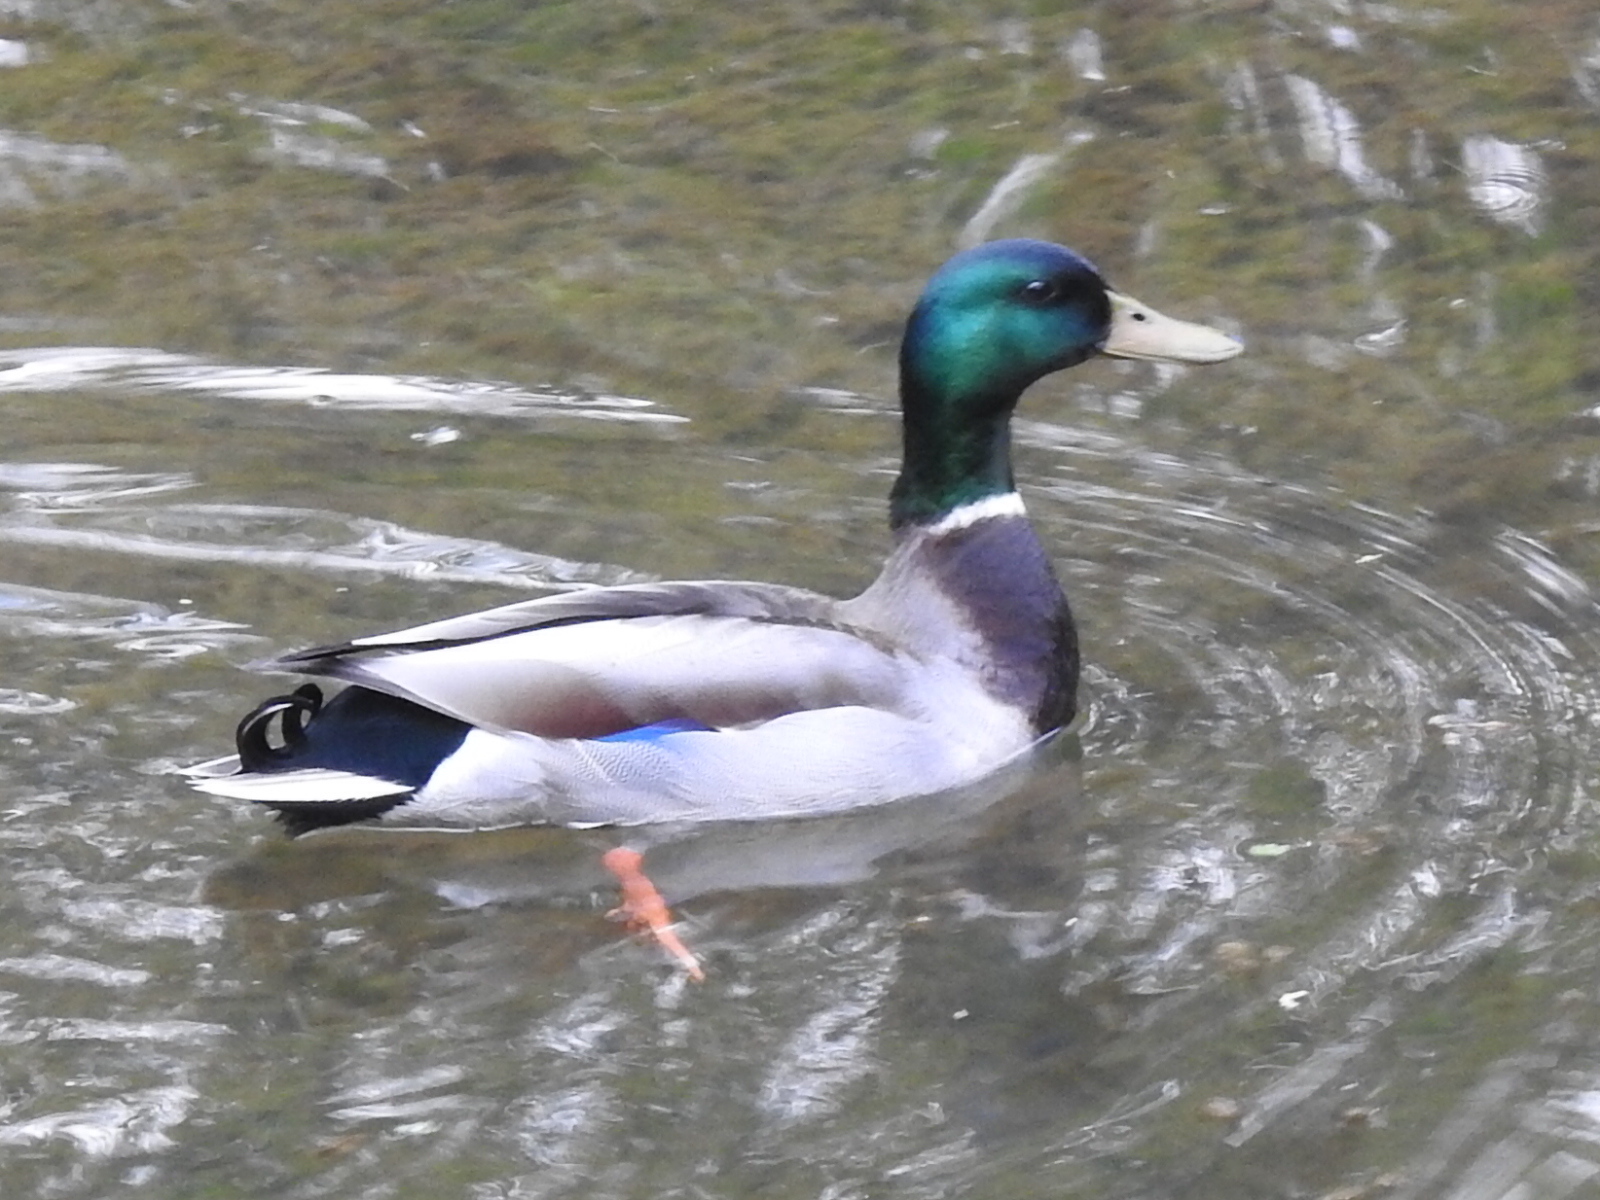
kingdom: Animalia
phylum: Chordata
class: Aves
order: Anseriformes
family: Anatidae
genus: Anas
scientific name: Anas platyrhynchos
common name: Mallard
